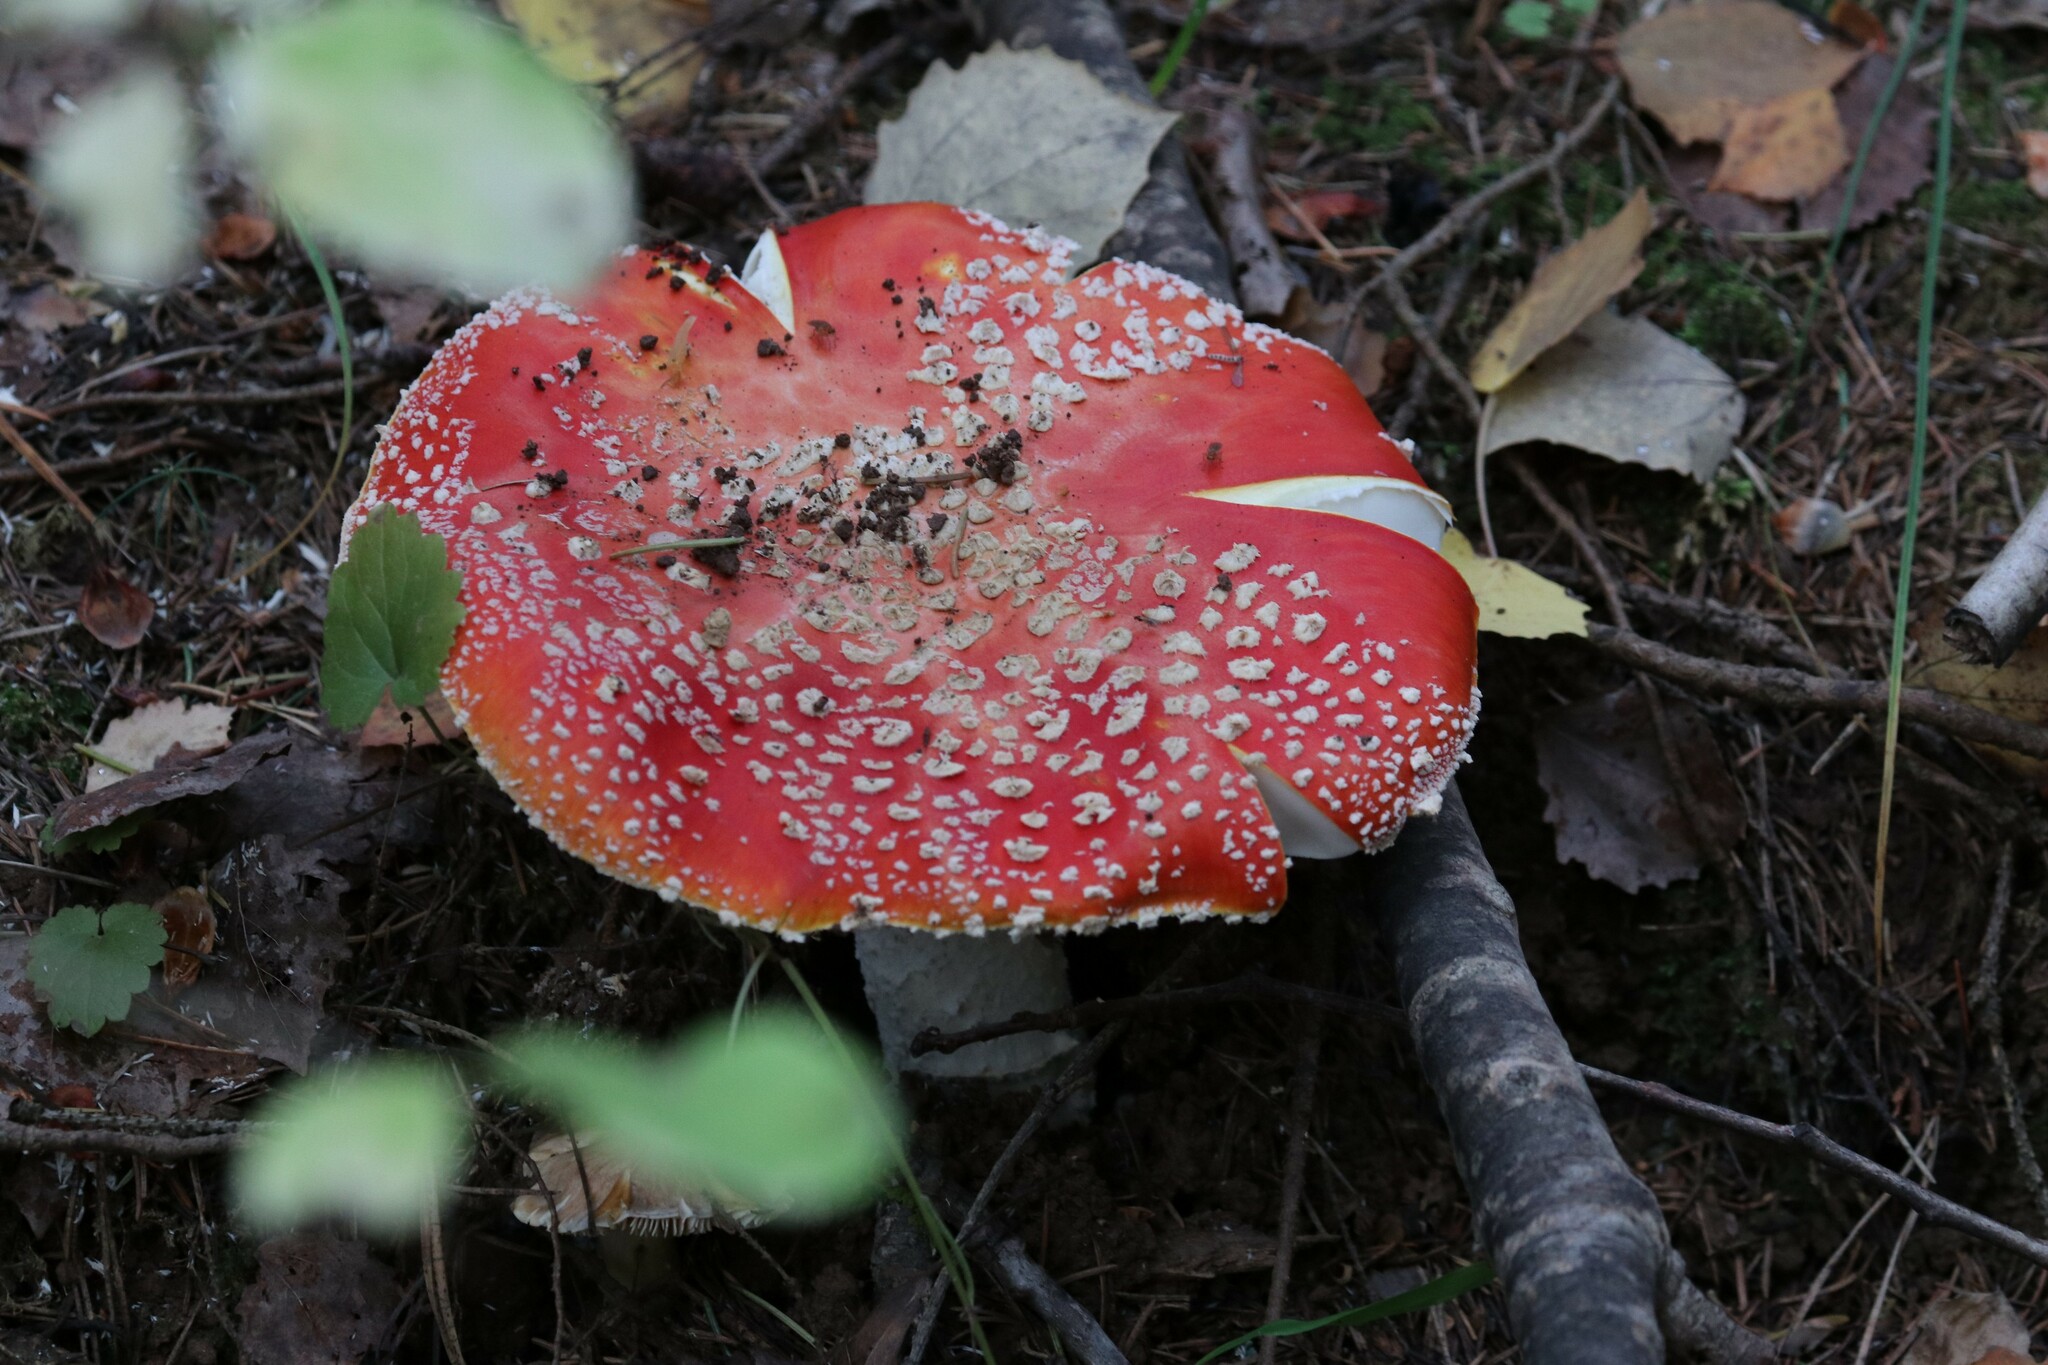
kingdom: Fungi
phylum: Basidiomycota
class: Agaricomycetes
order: Agaricales
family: Amanitaceae
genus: Amanita
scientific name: Amanita muscaria
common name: Fly agaric
